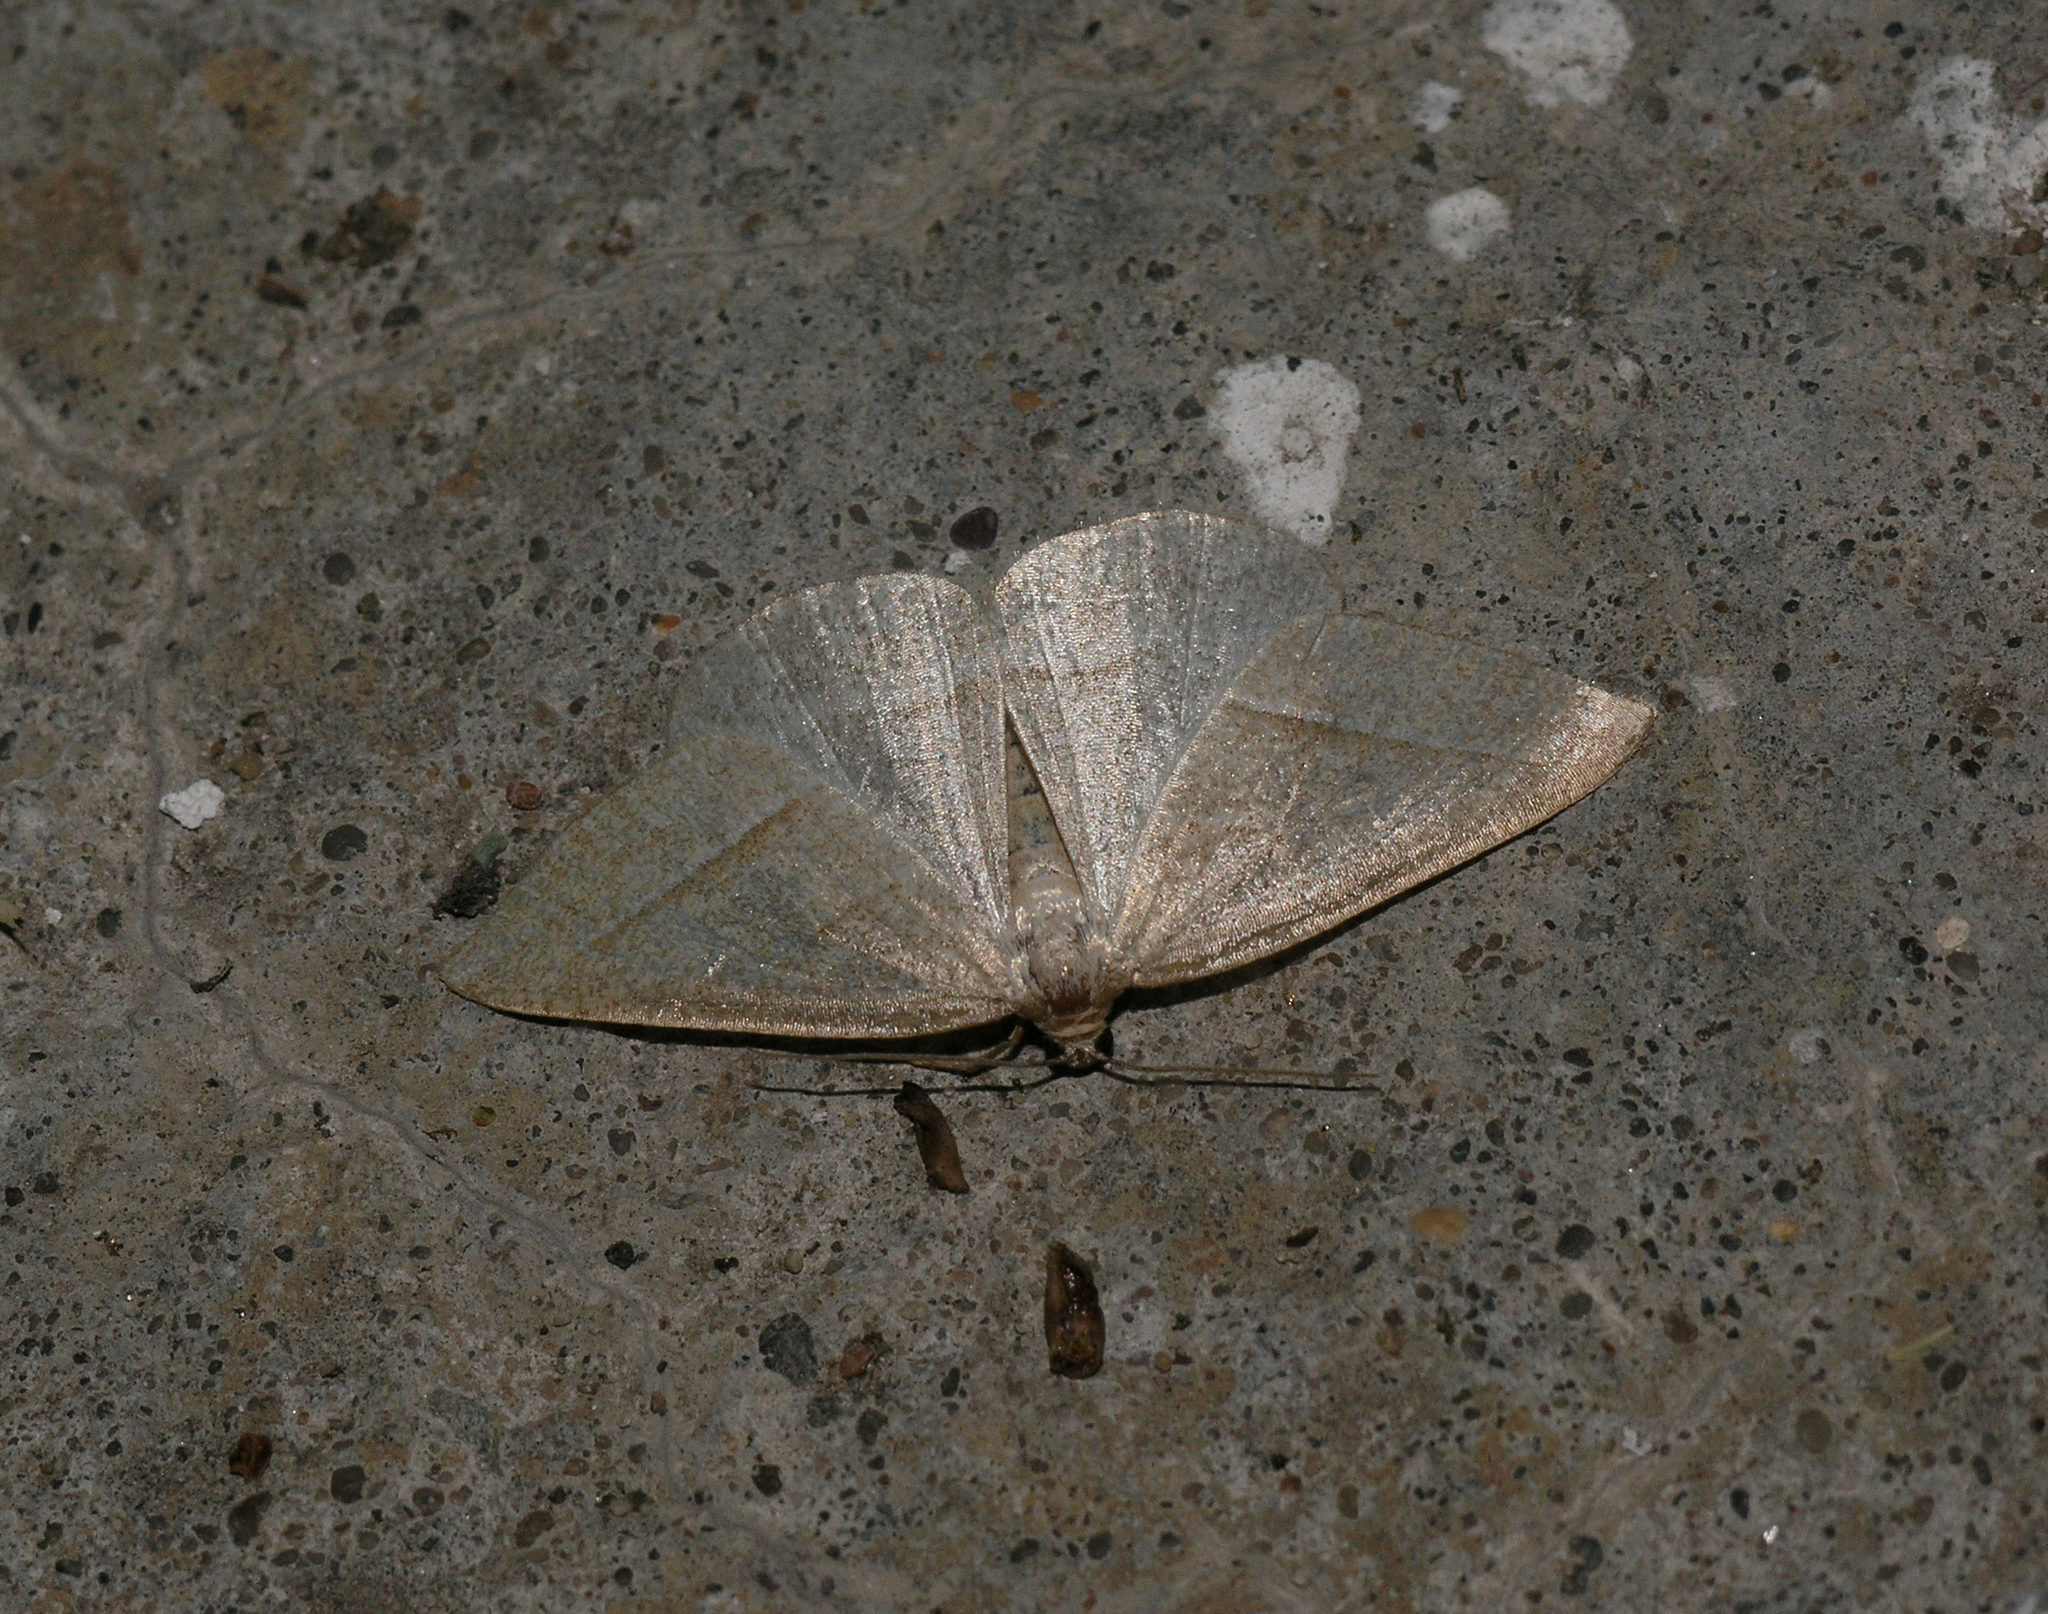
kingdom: Animalia
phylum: Arthropoda
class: Insecta
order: Lepidoptera
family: Pterophoridae
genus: Pterophorus
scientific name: Pterophorus Petrophora chlorosata
